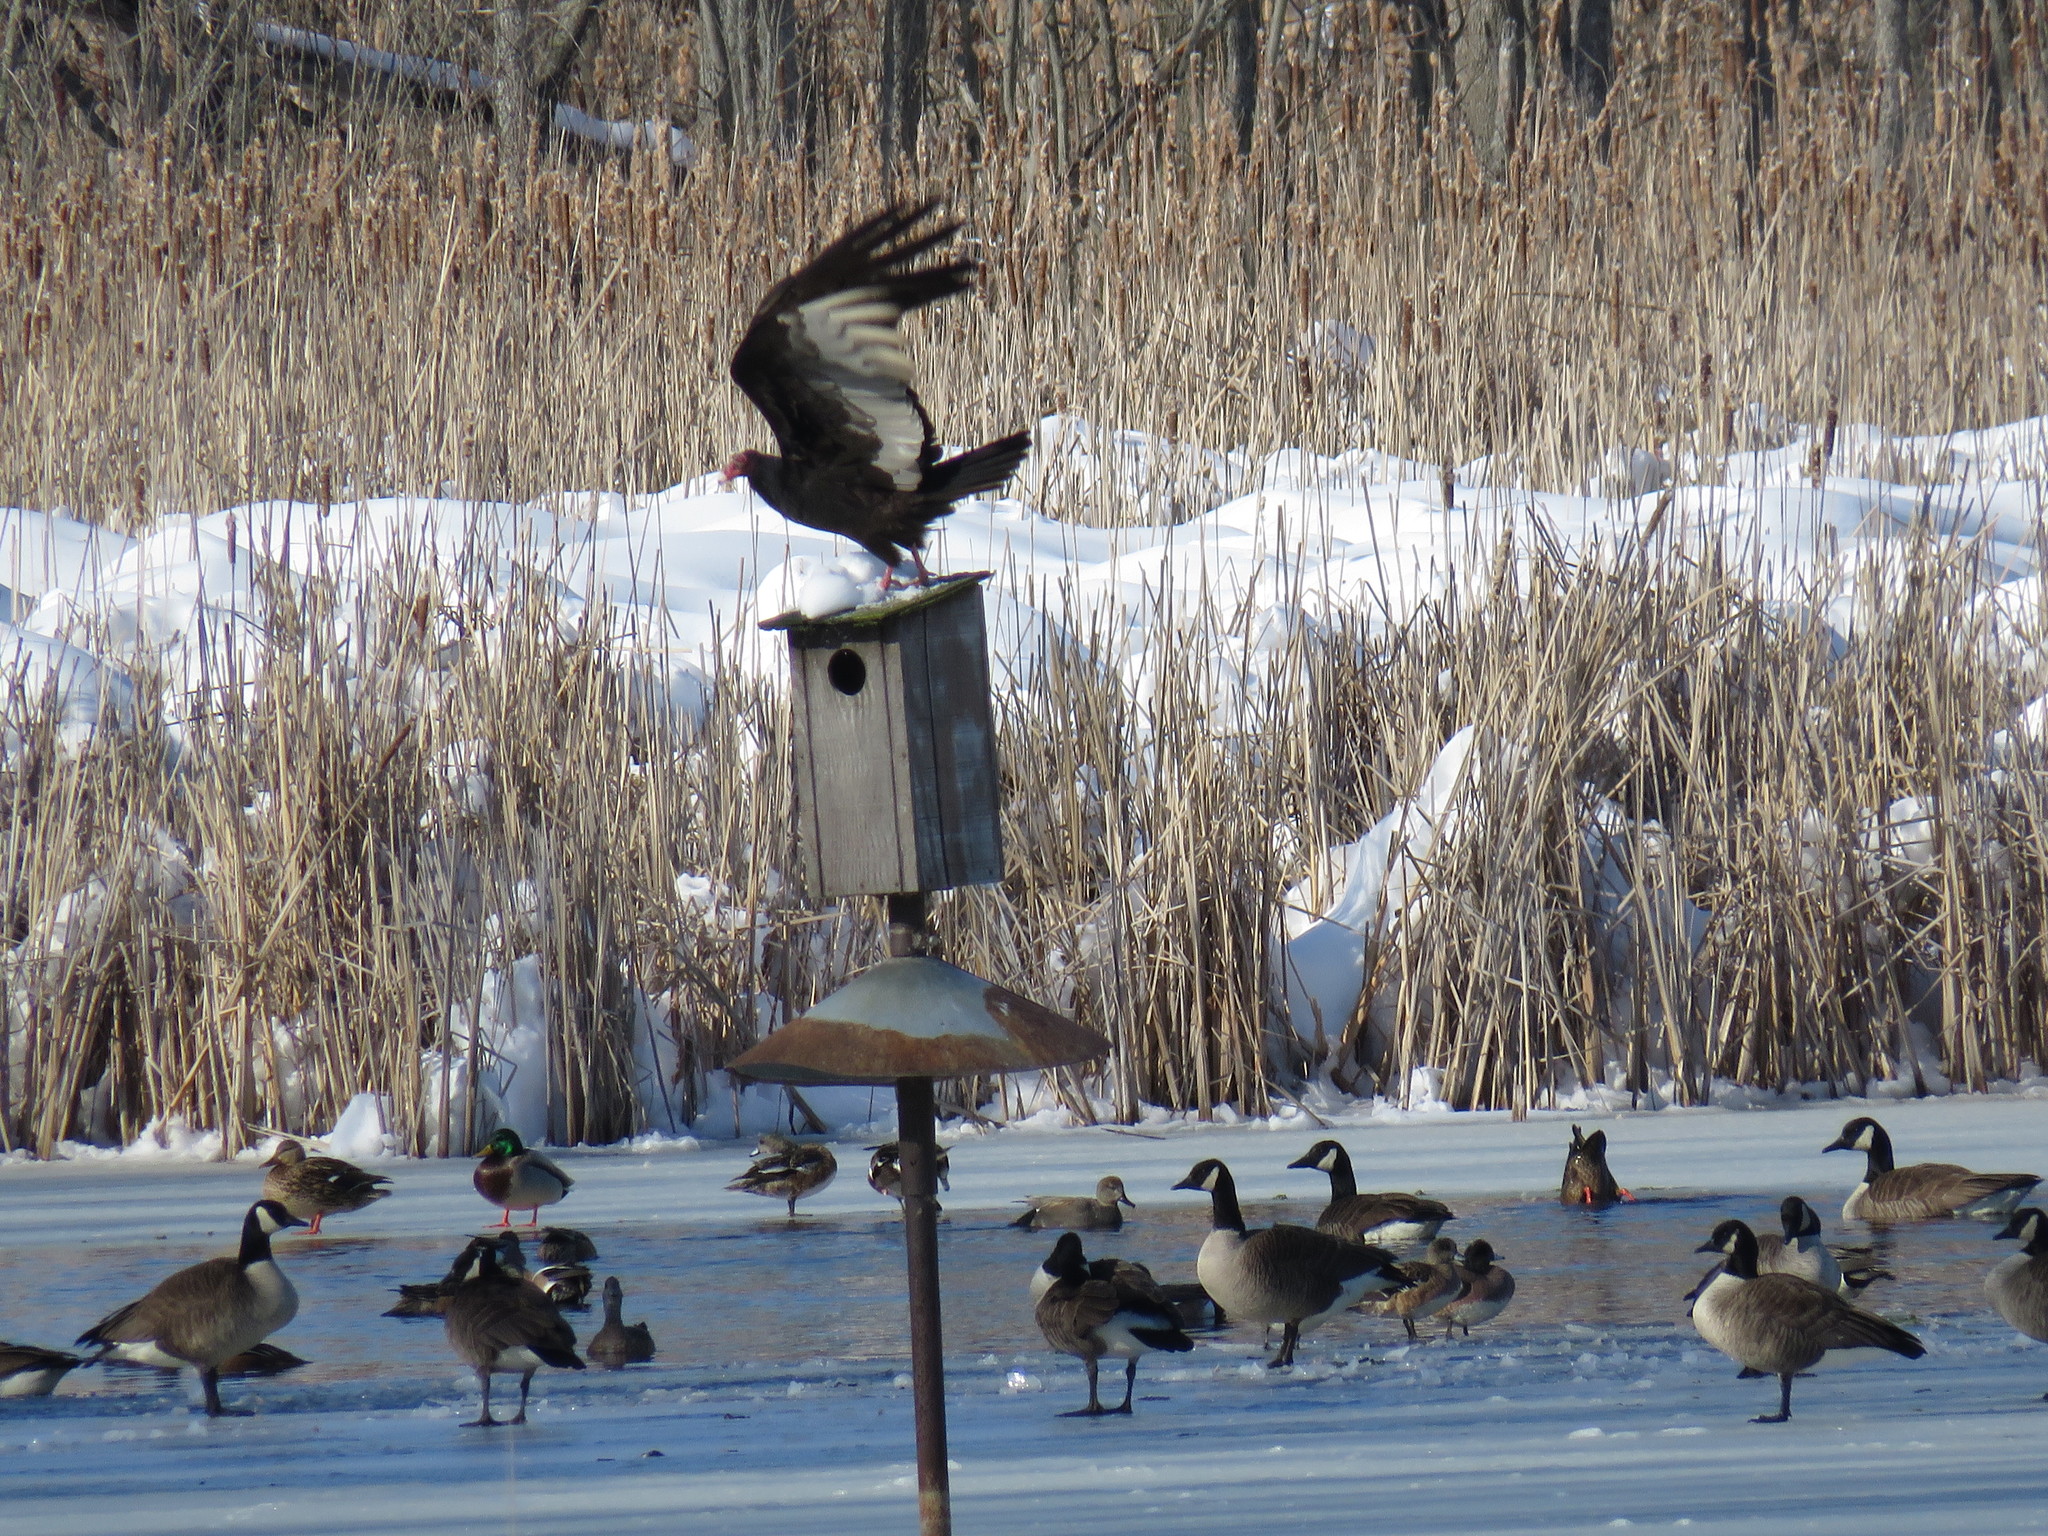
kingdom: Animalia
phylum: Chordata
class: Aves
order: Accipitriformes
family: Cathartidae
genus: Cathartes
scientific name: Cathartes aura
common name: Turkey vulture
